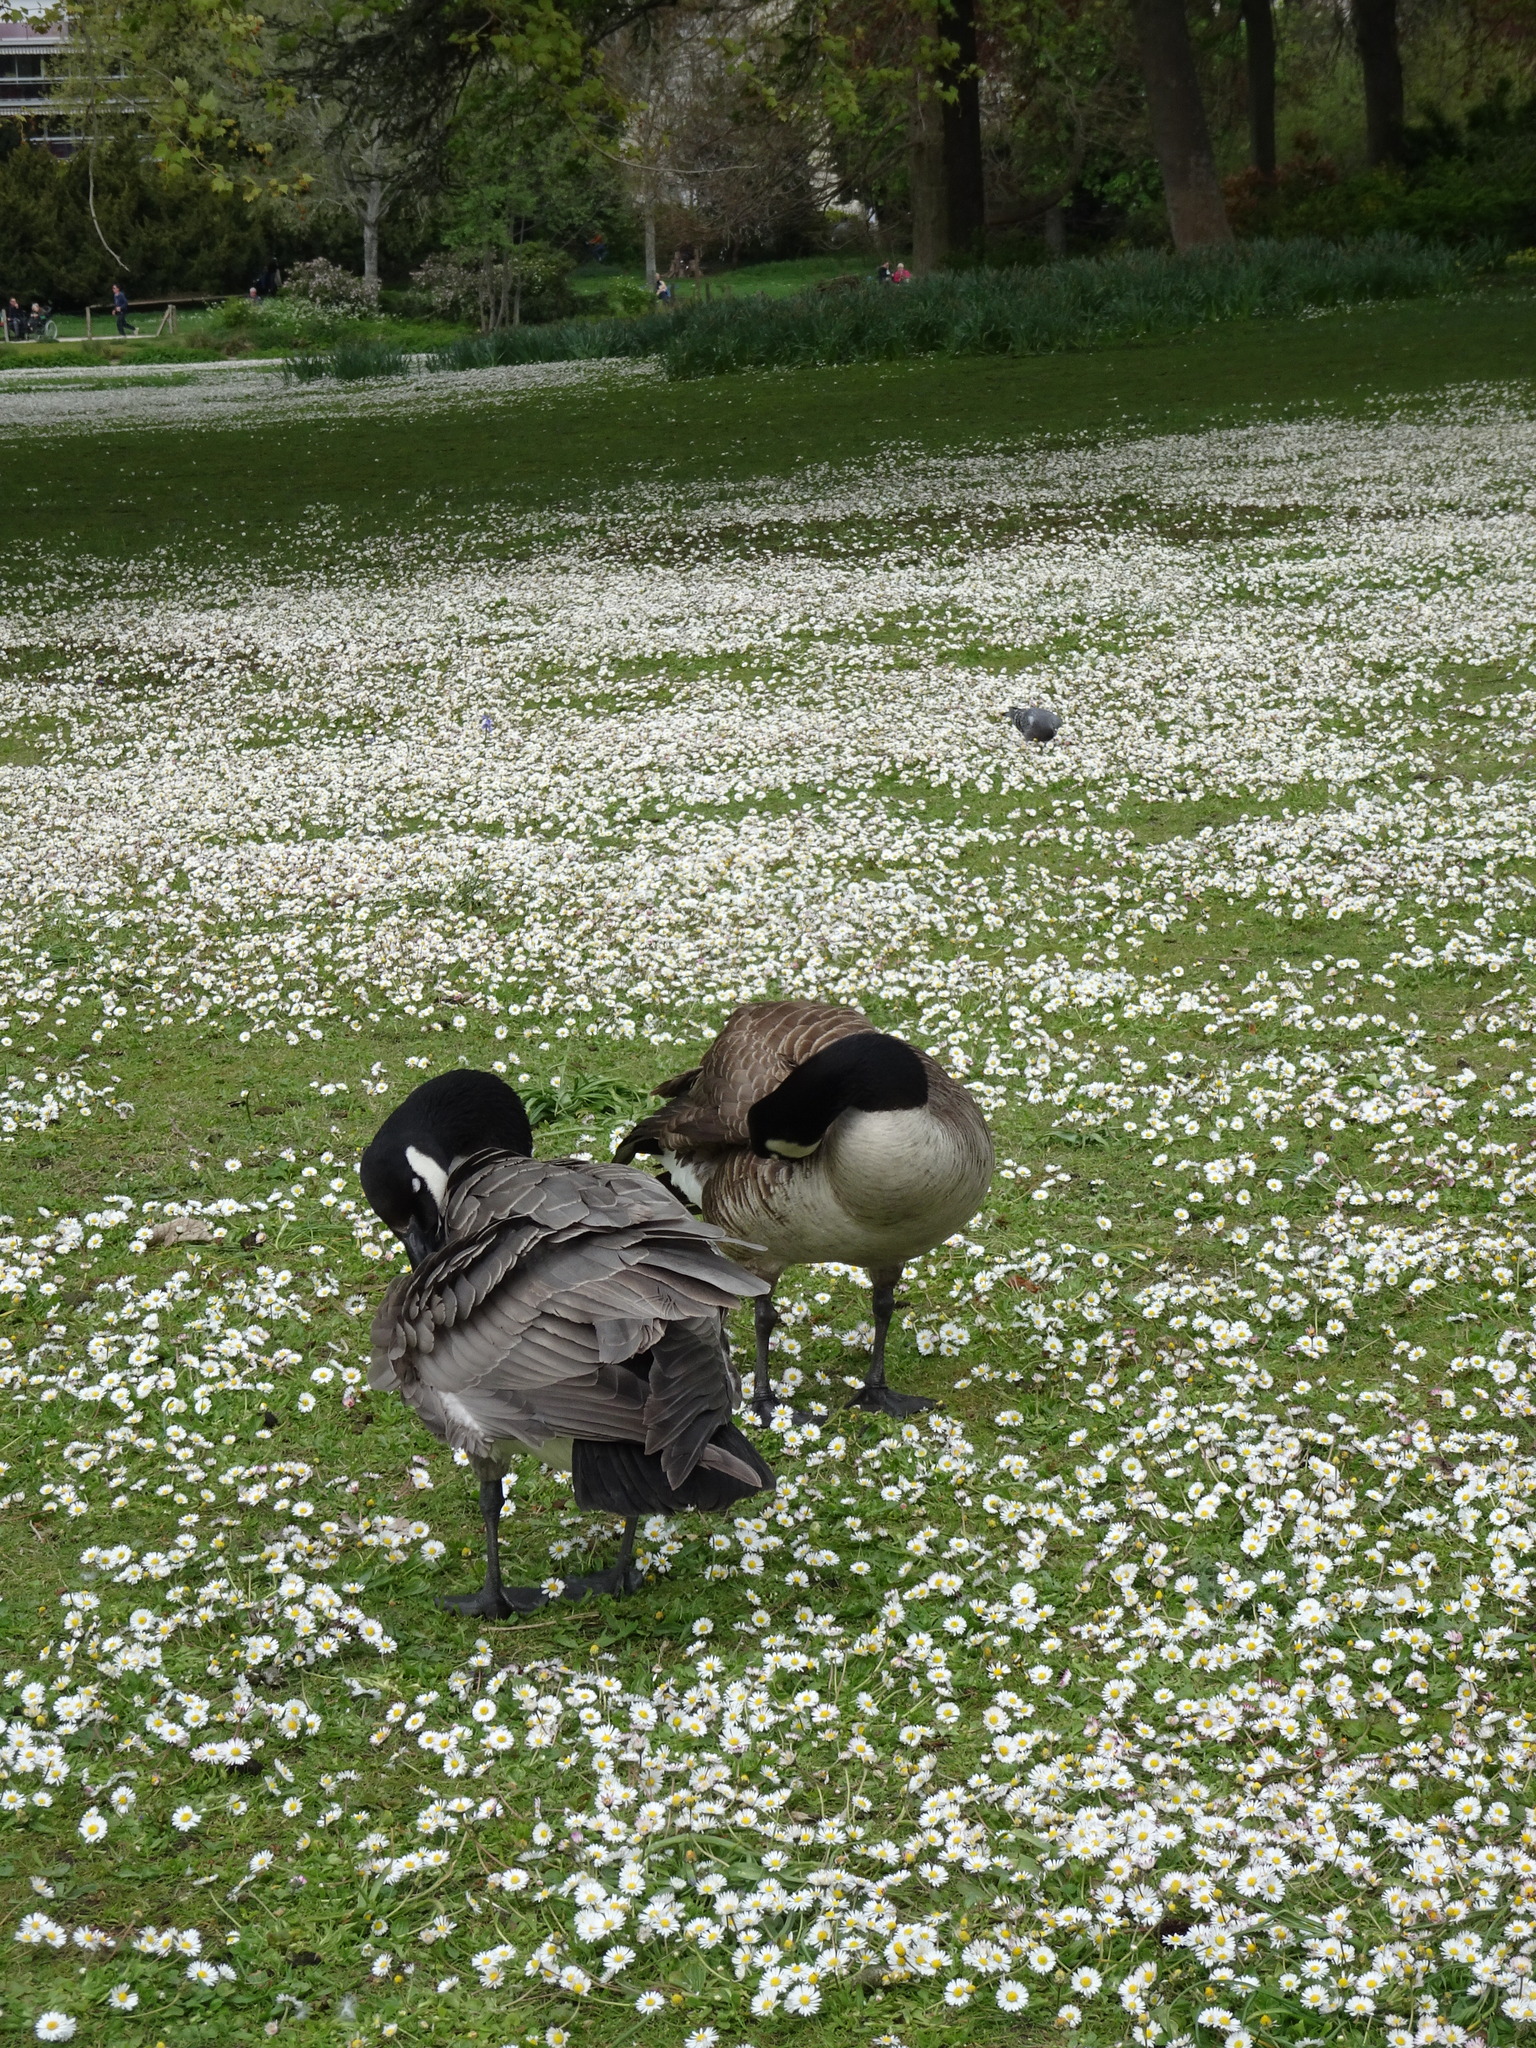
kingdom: Animalia
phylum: Chordata
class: Aves
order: Anseriformes
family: Anatidae
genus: Branta
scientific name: Branta canadensis
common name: Canada goose
